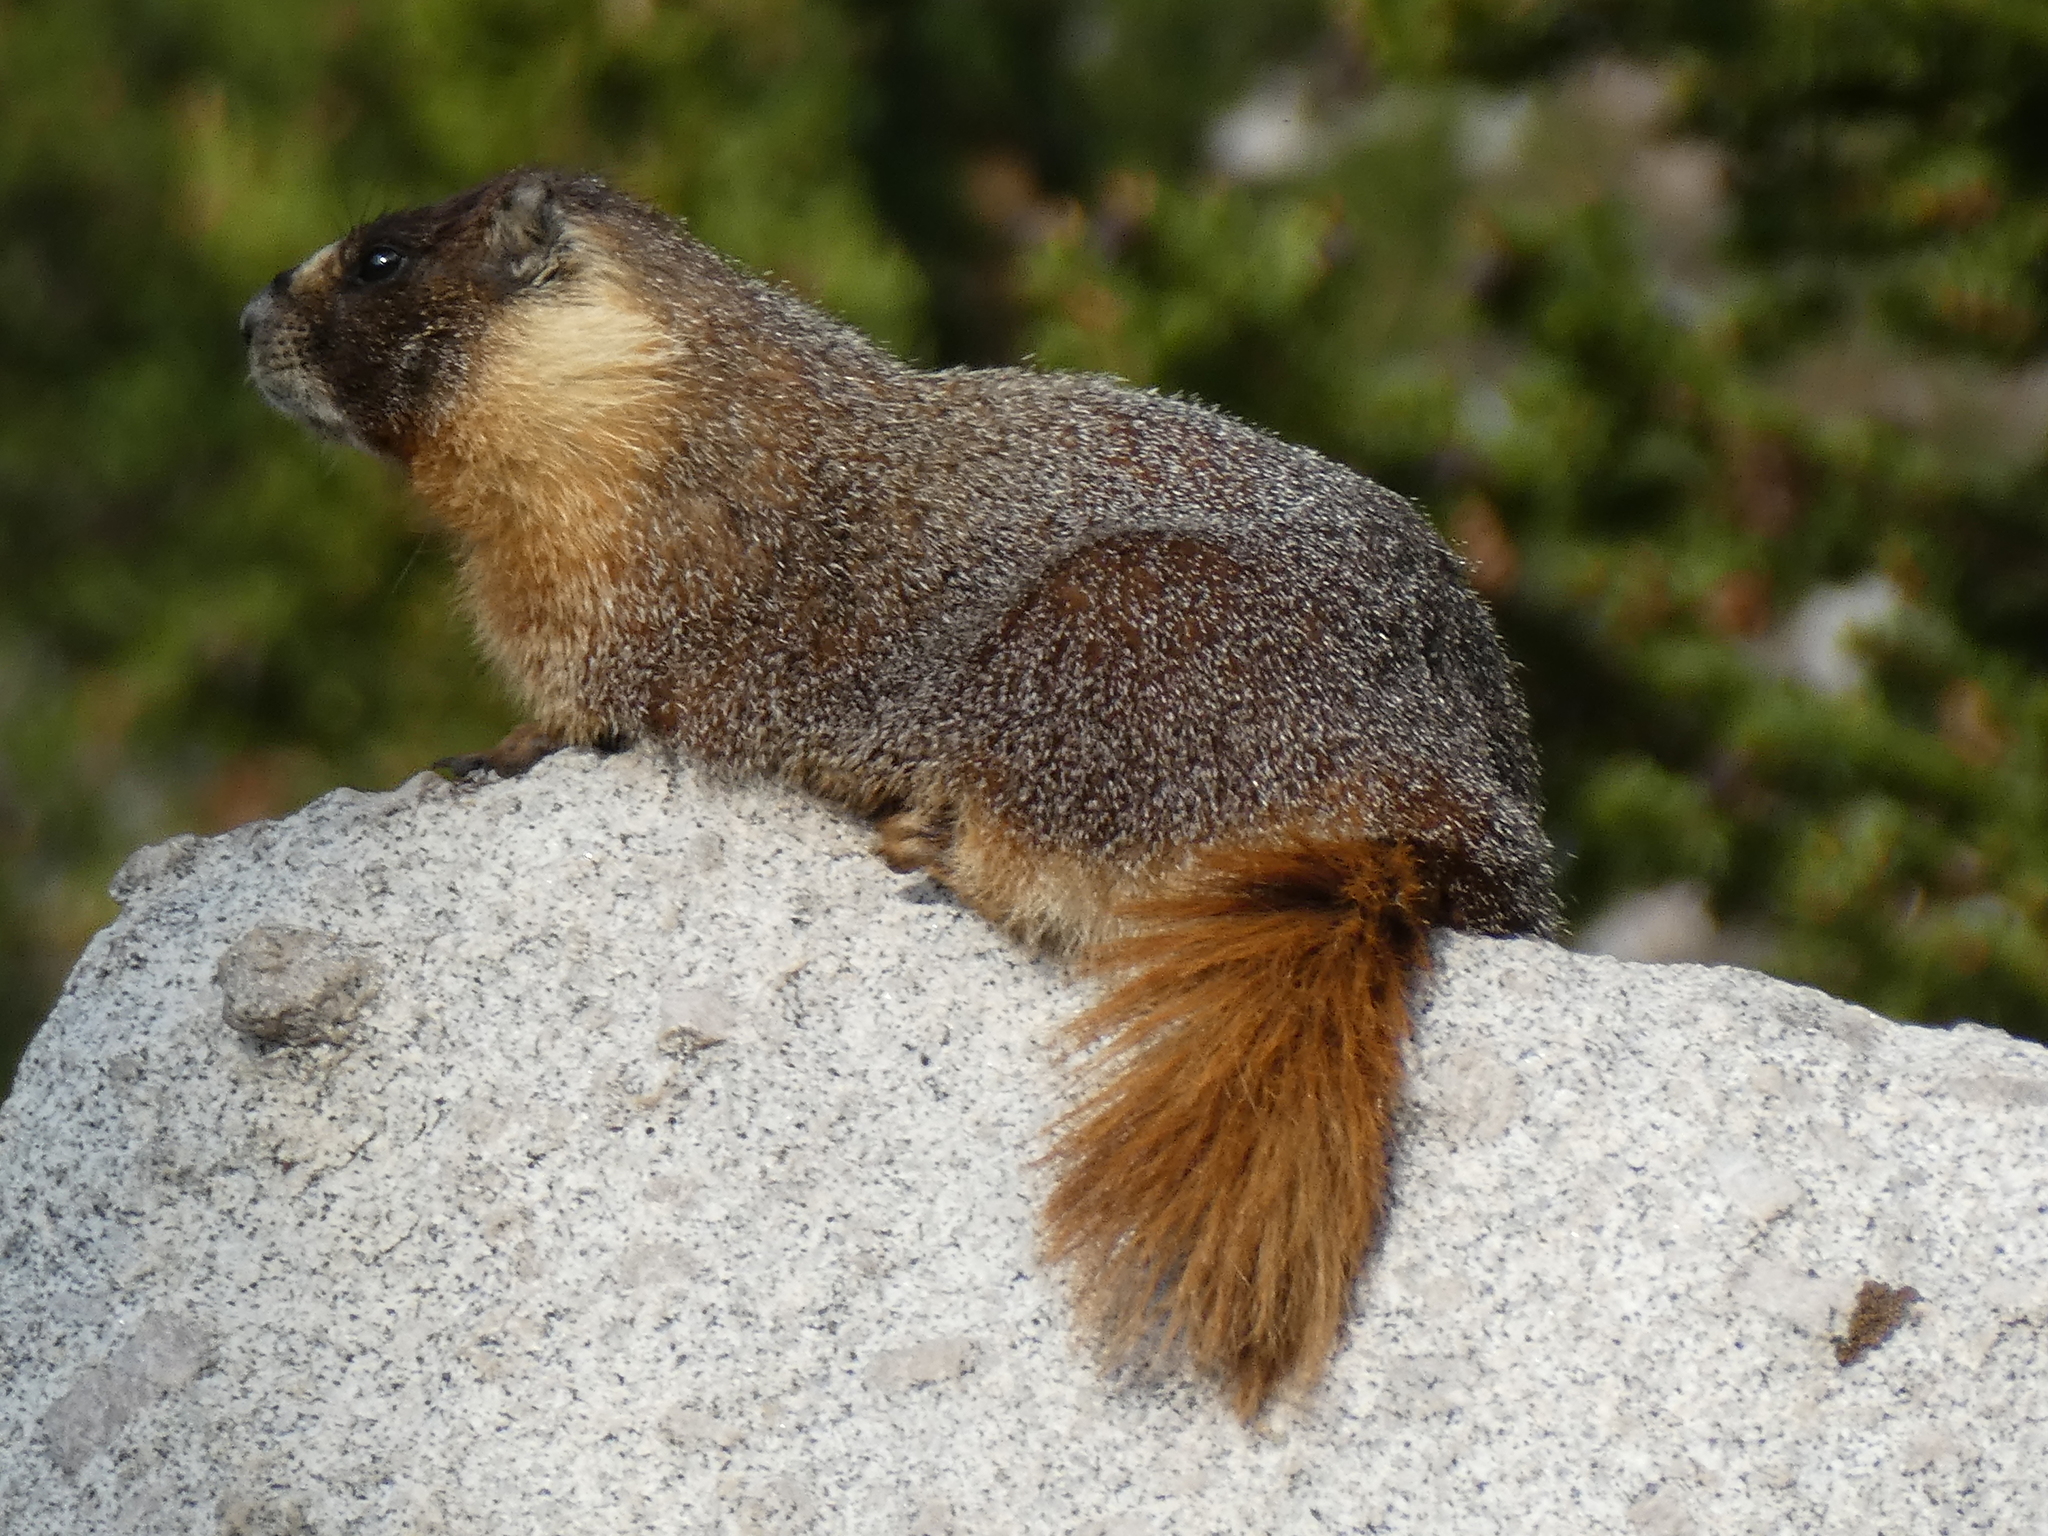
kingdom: Animalia
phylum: Chordata
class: Mammalia
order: Rodentia
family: Sciuridae
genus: Marmota
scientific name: Marmota flaviventris
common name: Yellow-bellied marmot
